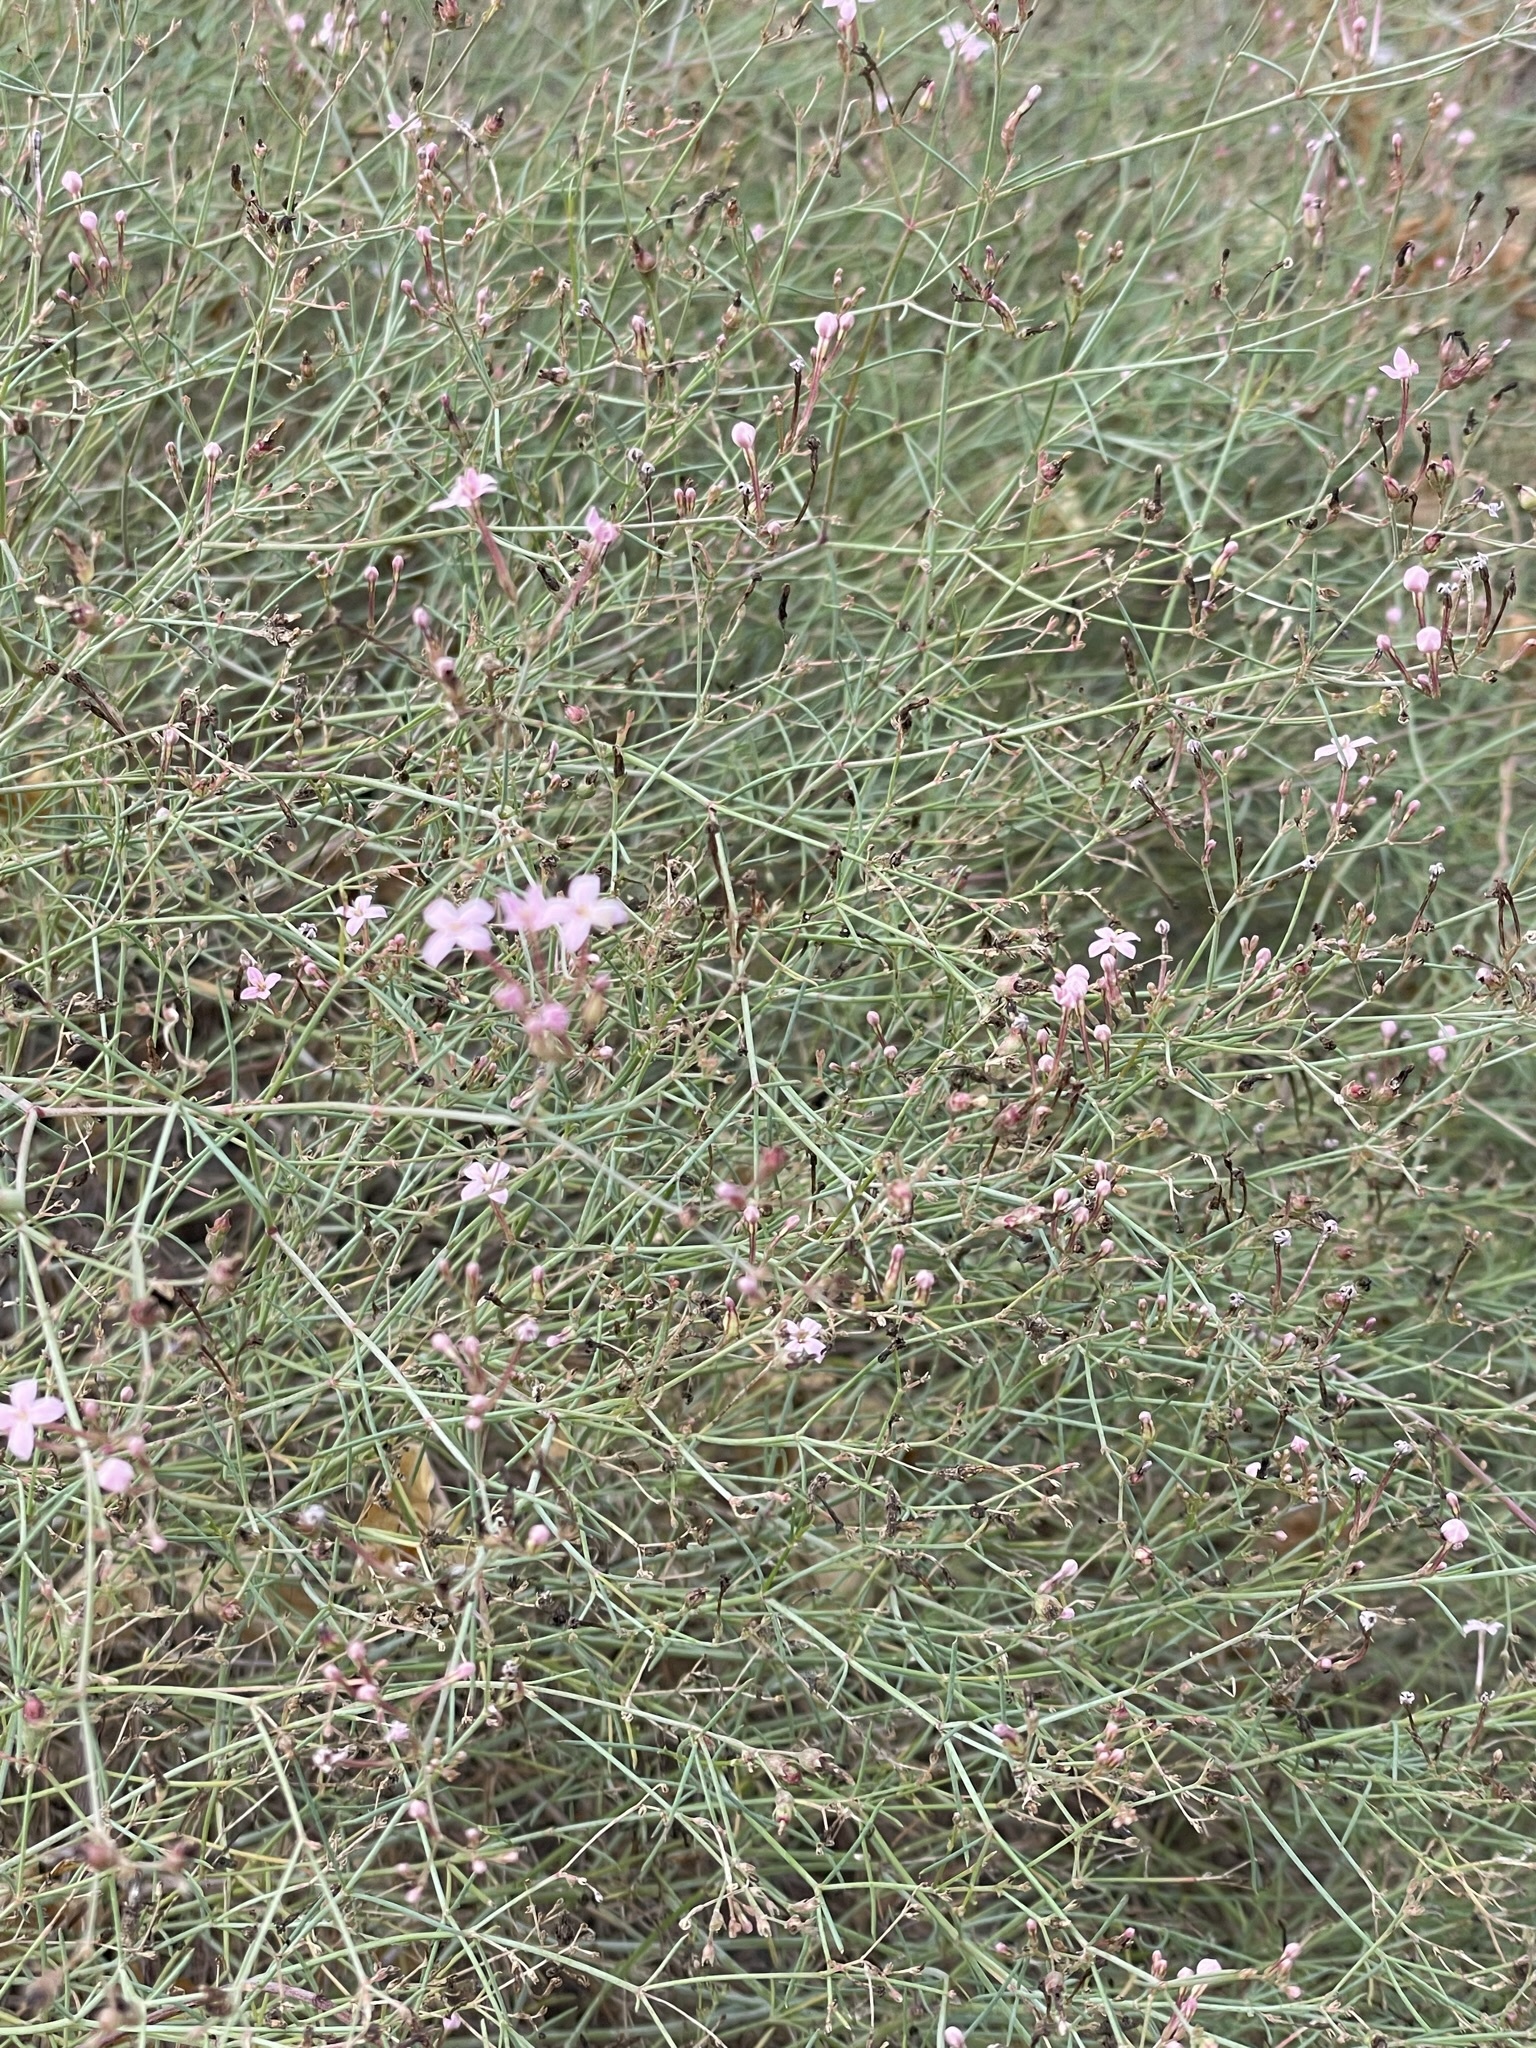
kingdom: Plantae
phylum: Tracheophyta
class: Magnoliopsida
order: Gentianales
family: Rubiaceae
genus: Stenotis
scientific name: Stenotis brevipes
